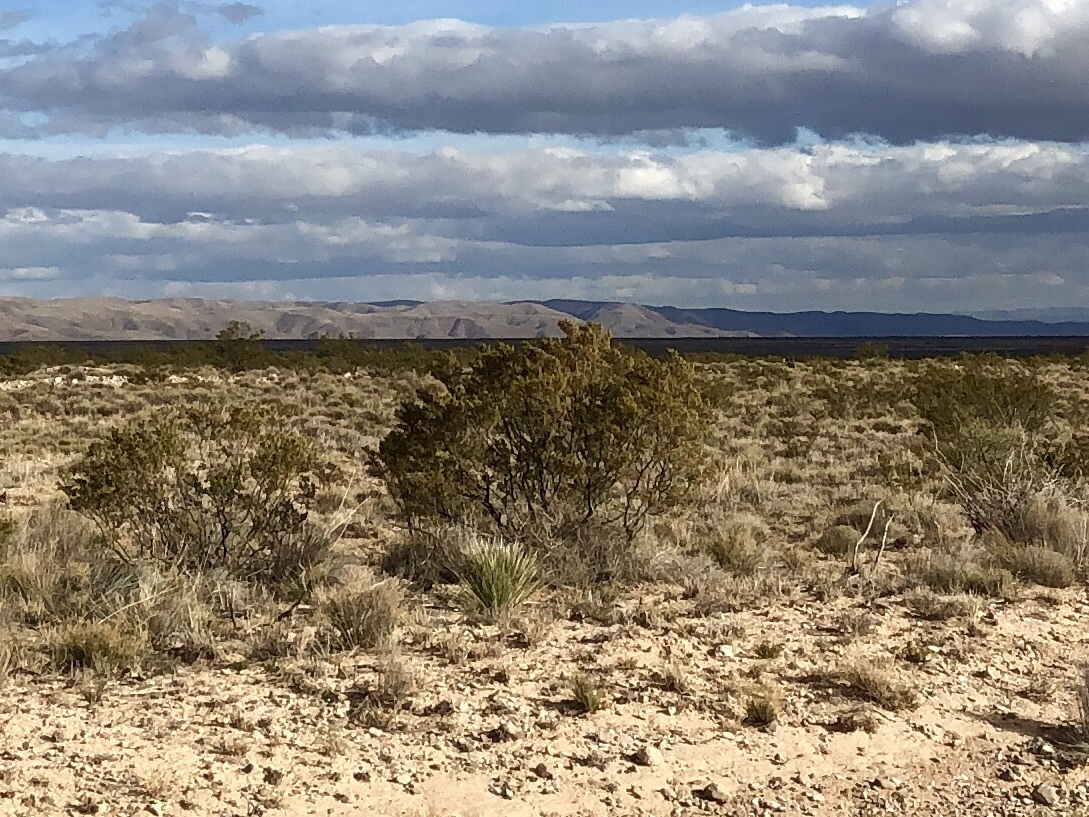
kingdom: Plantae
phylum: Tracheophyta
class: Magnoliopsida
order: Zygophyllales
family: Zygophyllaceae
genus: Larrea
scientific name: Larrea tridentata
